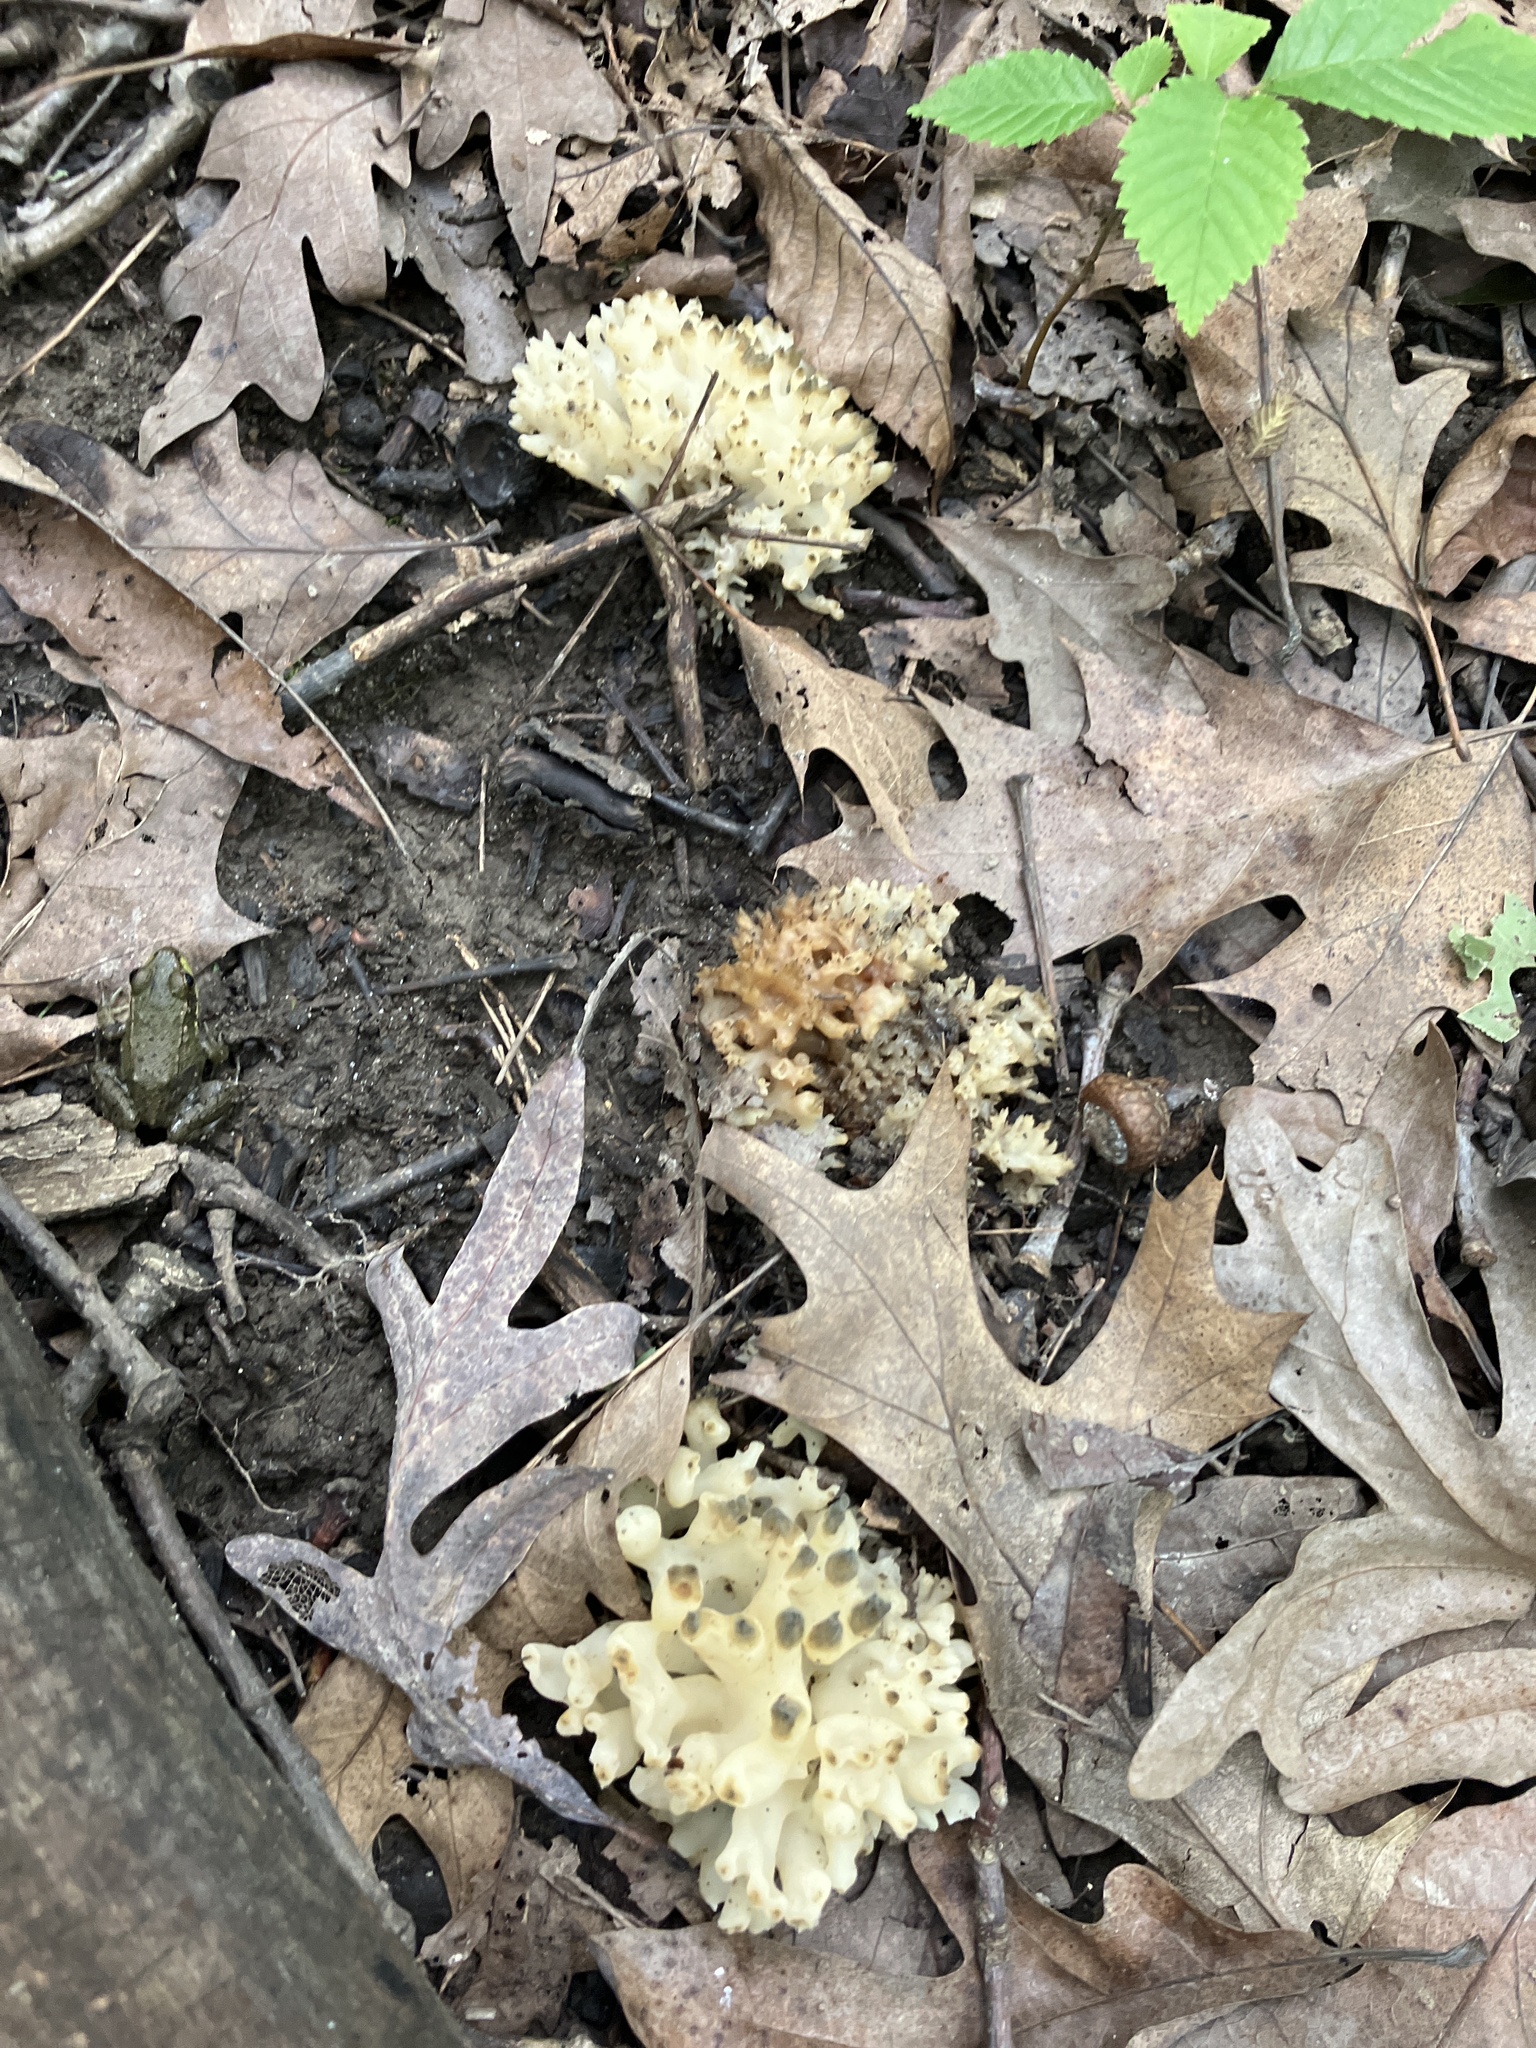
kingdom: Fungi
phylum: Basidiomycota
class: Agaricomycetes
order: Sebacinales
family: Sebacinaceae
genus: Sebacina
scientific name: Sebacina sparassoidea
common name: White coral jelly fungus
